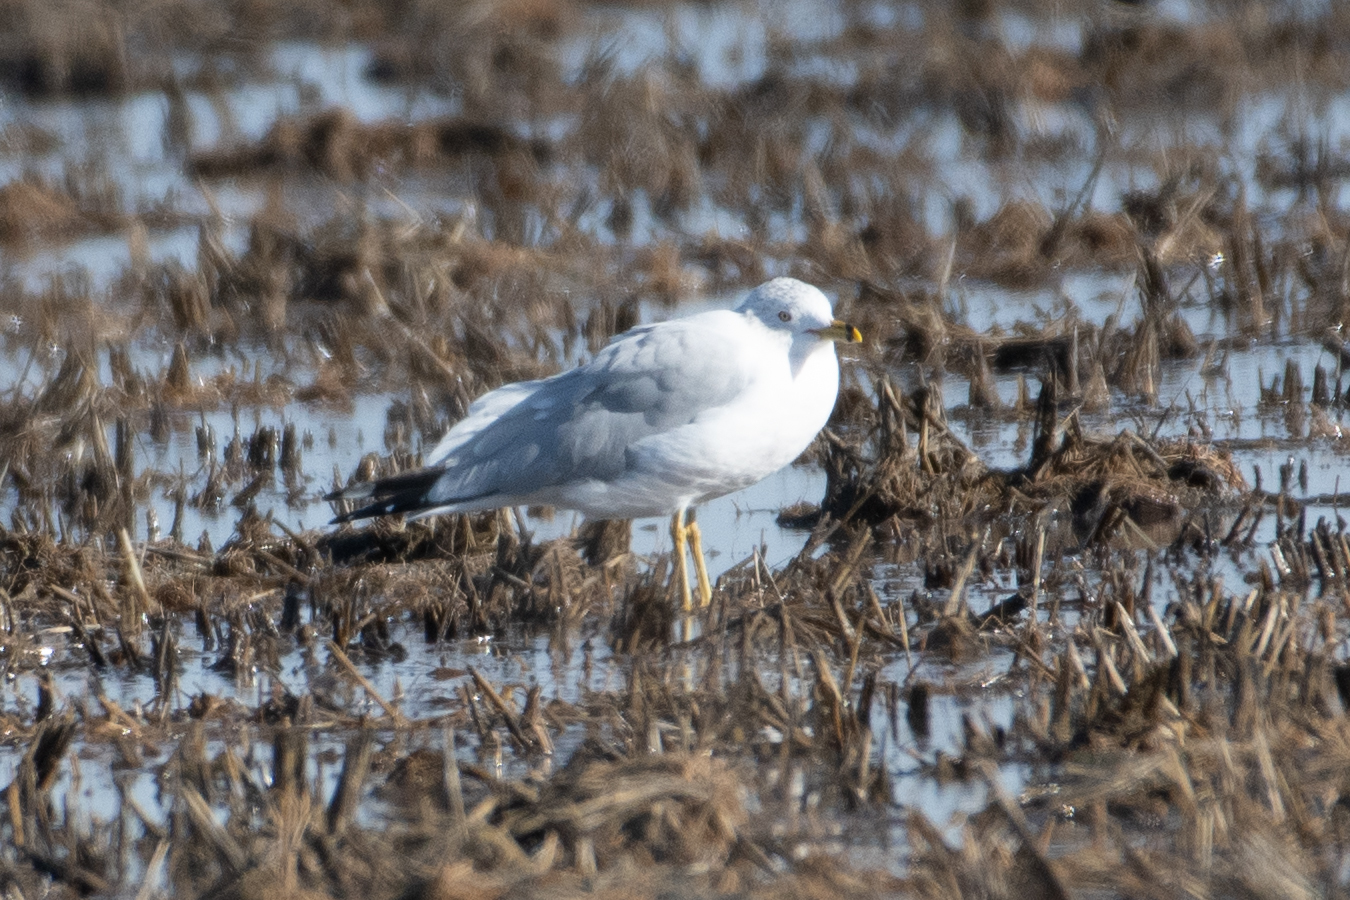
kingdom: Animalia
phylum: Chordata
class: Aves
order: Charadriiformes
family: Laridae
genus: Larus
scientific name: Larus delawarensis
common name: Ring-billed gull
